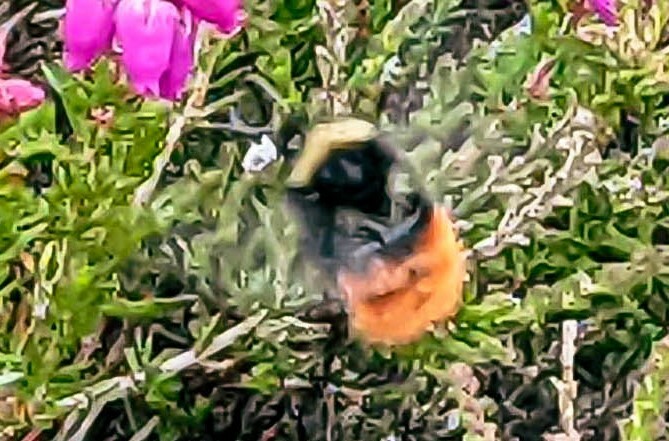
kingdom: Animalia
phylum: Arthropoda
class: Insecta
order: Hymenoptera
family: Apidae
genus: Bombus
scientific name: Bombus monticola
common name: Bilberry humble-bee
